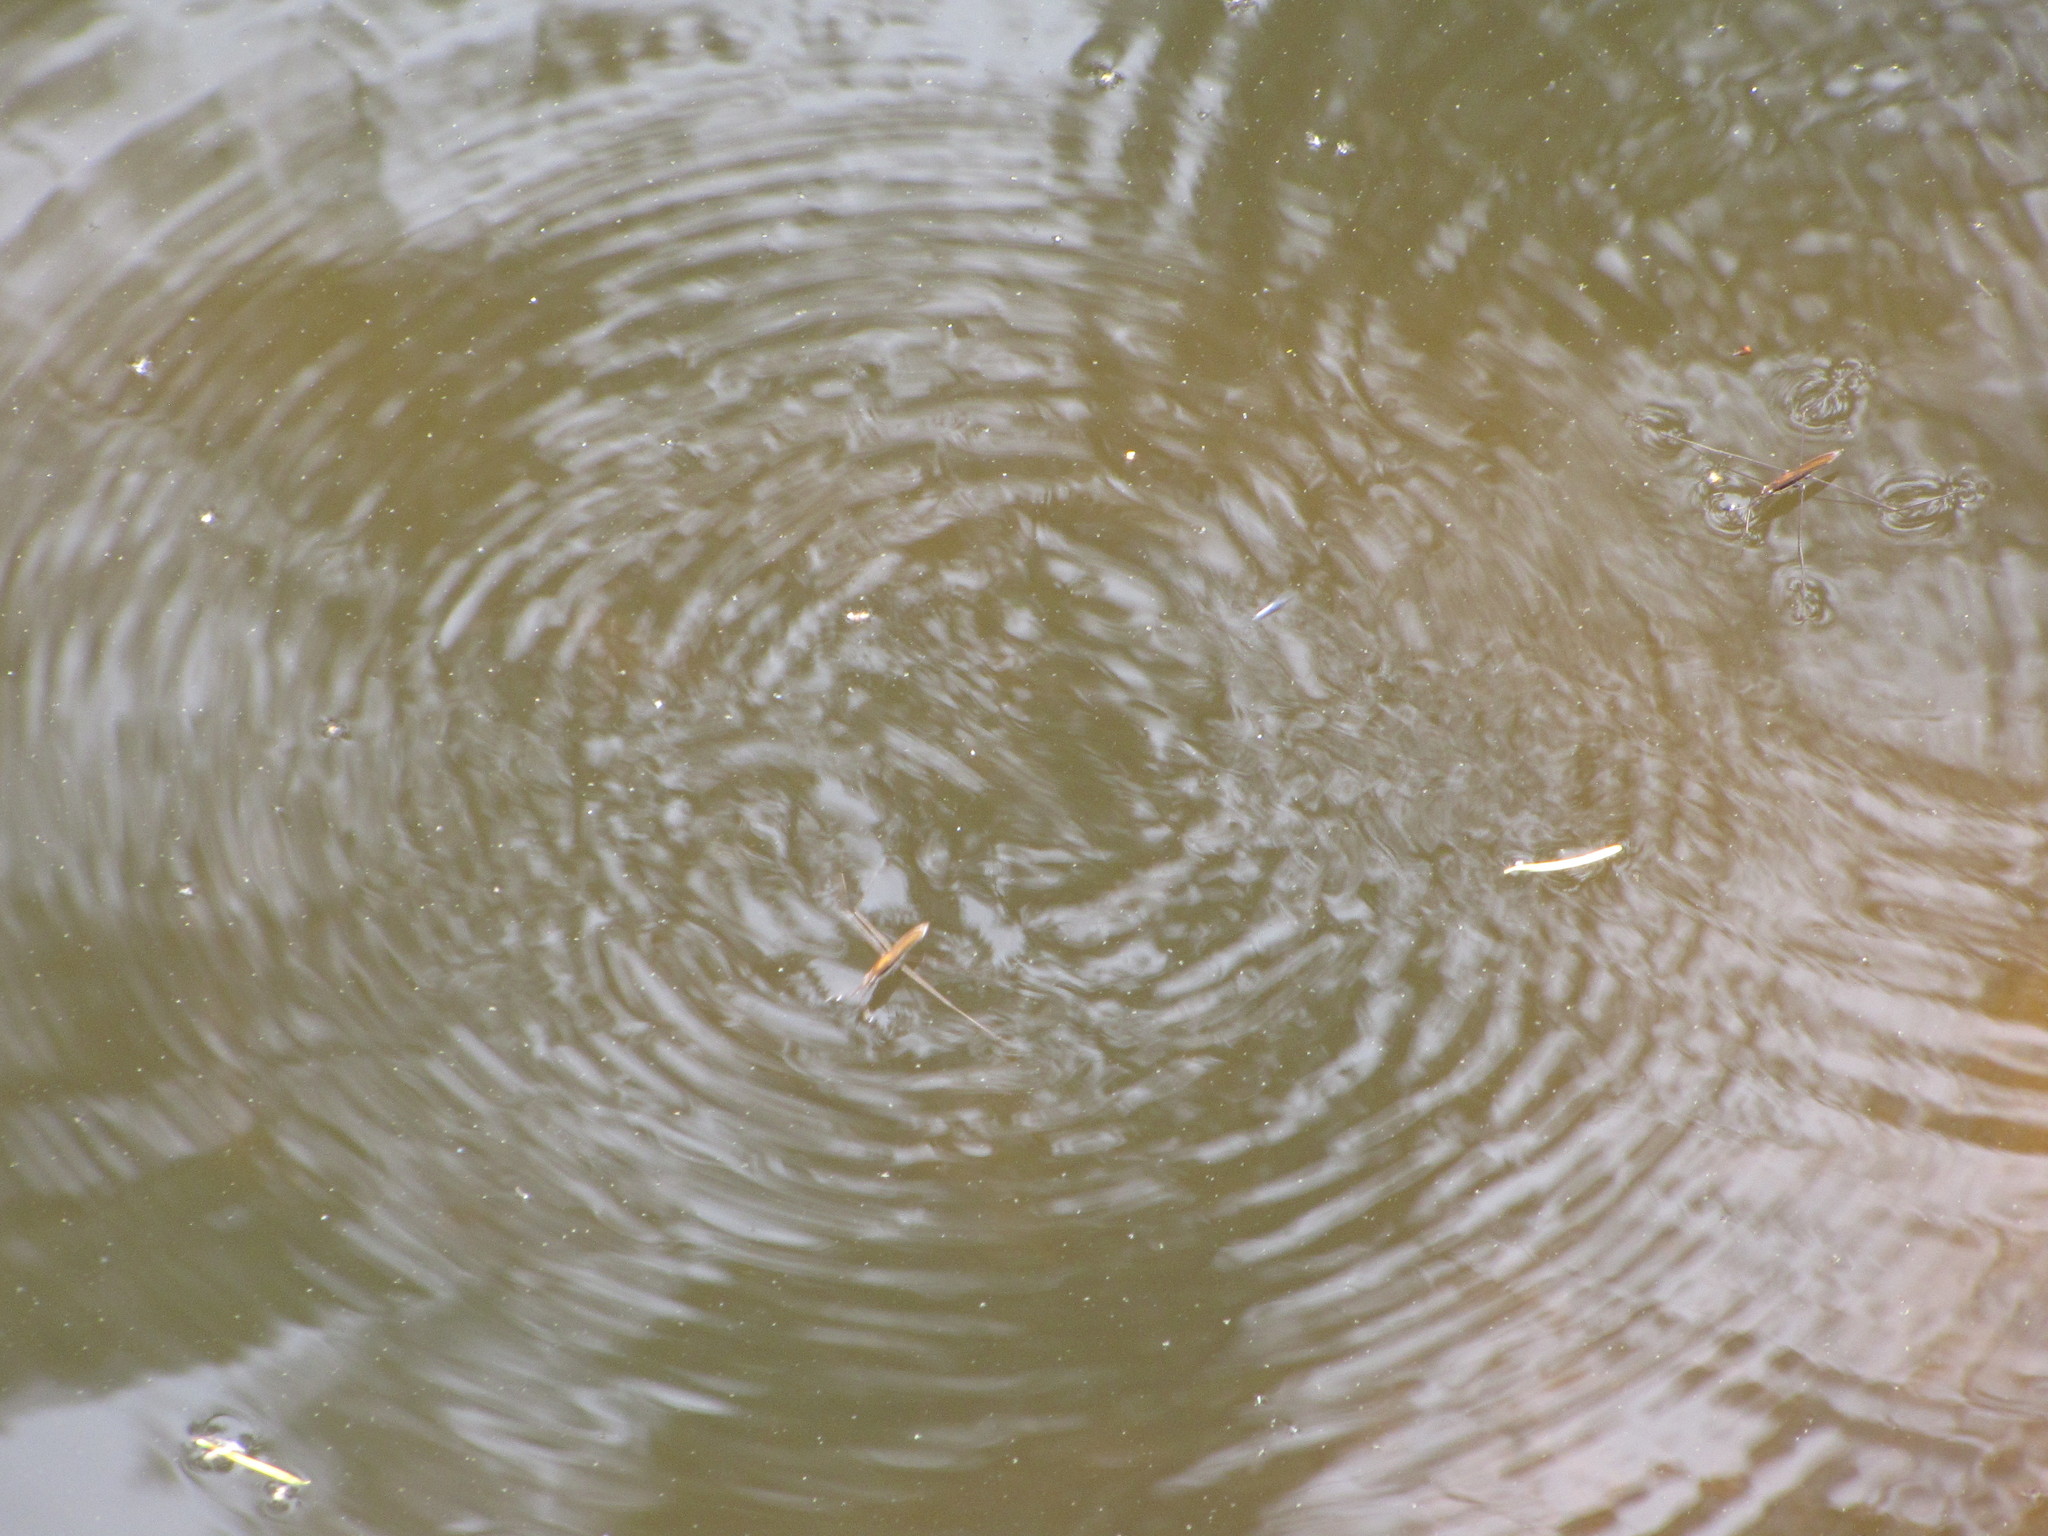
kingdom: Animalia
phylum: Arthropoda
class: Insecta
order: Hemiptera
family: Gerridae
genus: Limnoporus
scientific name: Limnoporus notabilis
